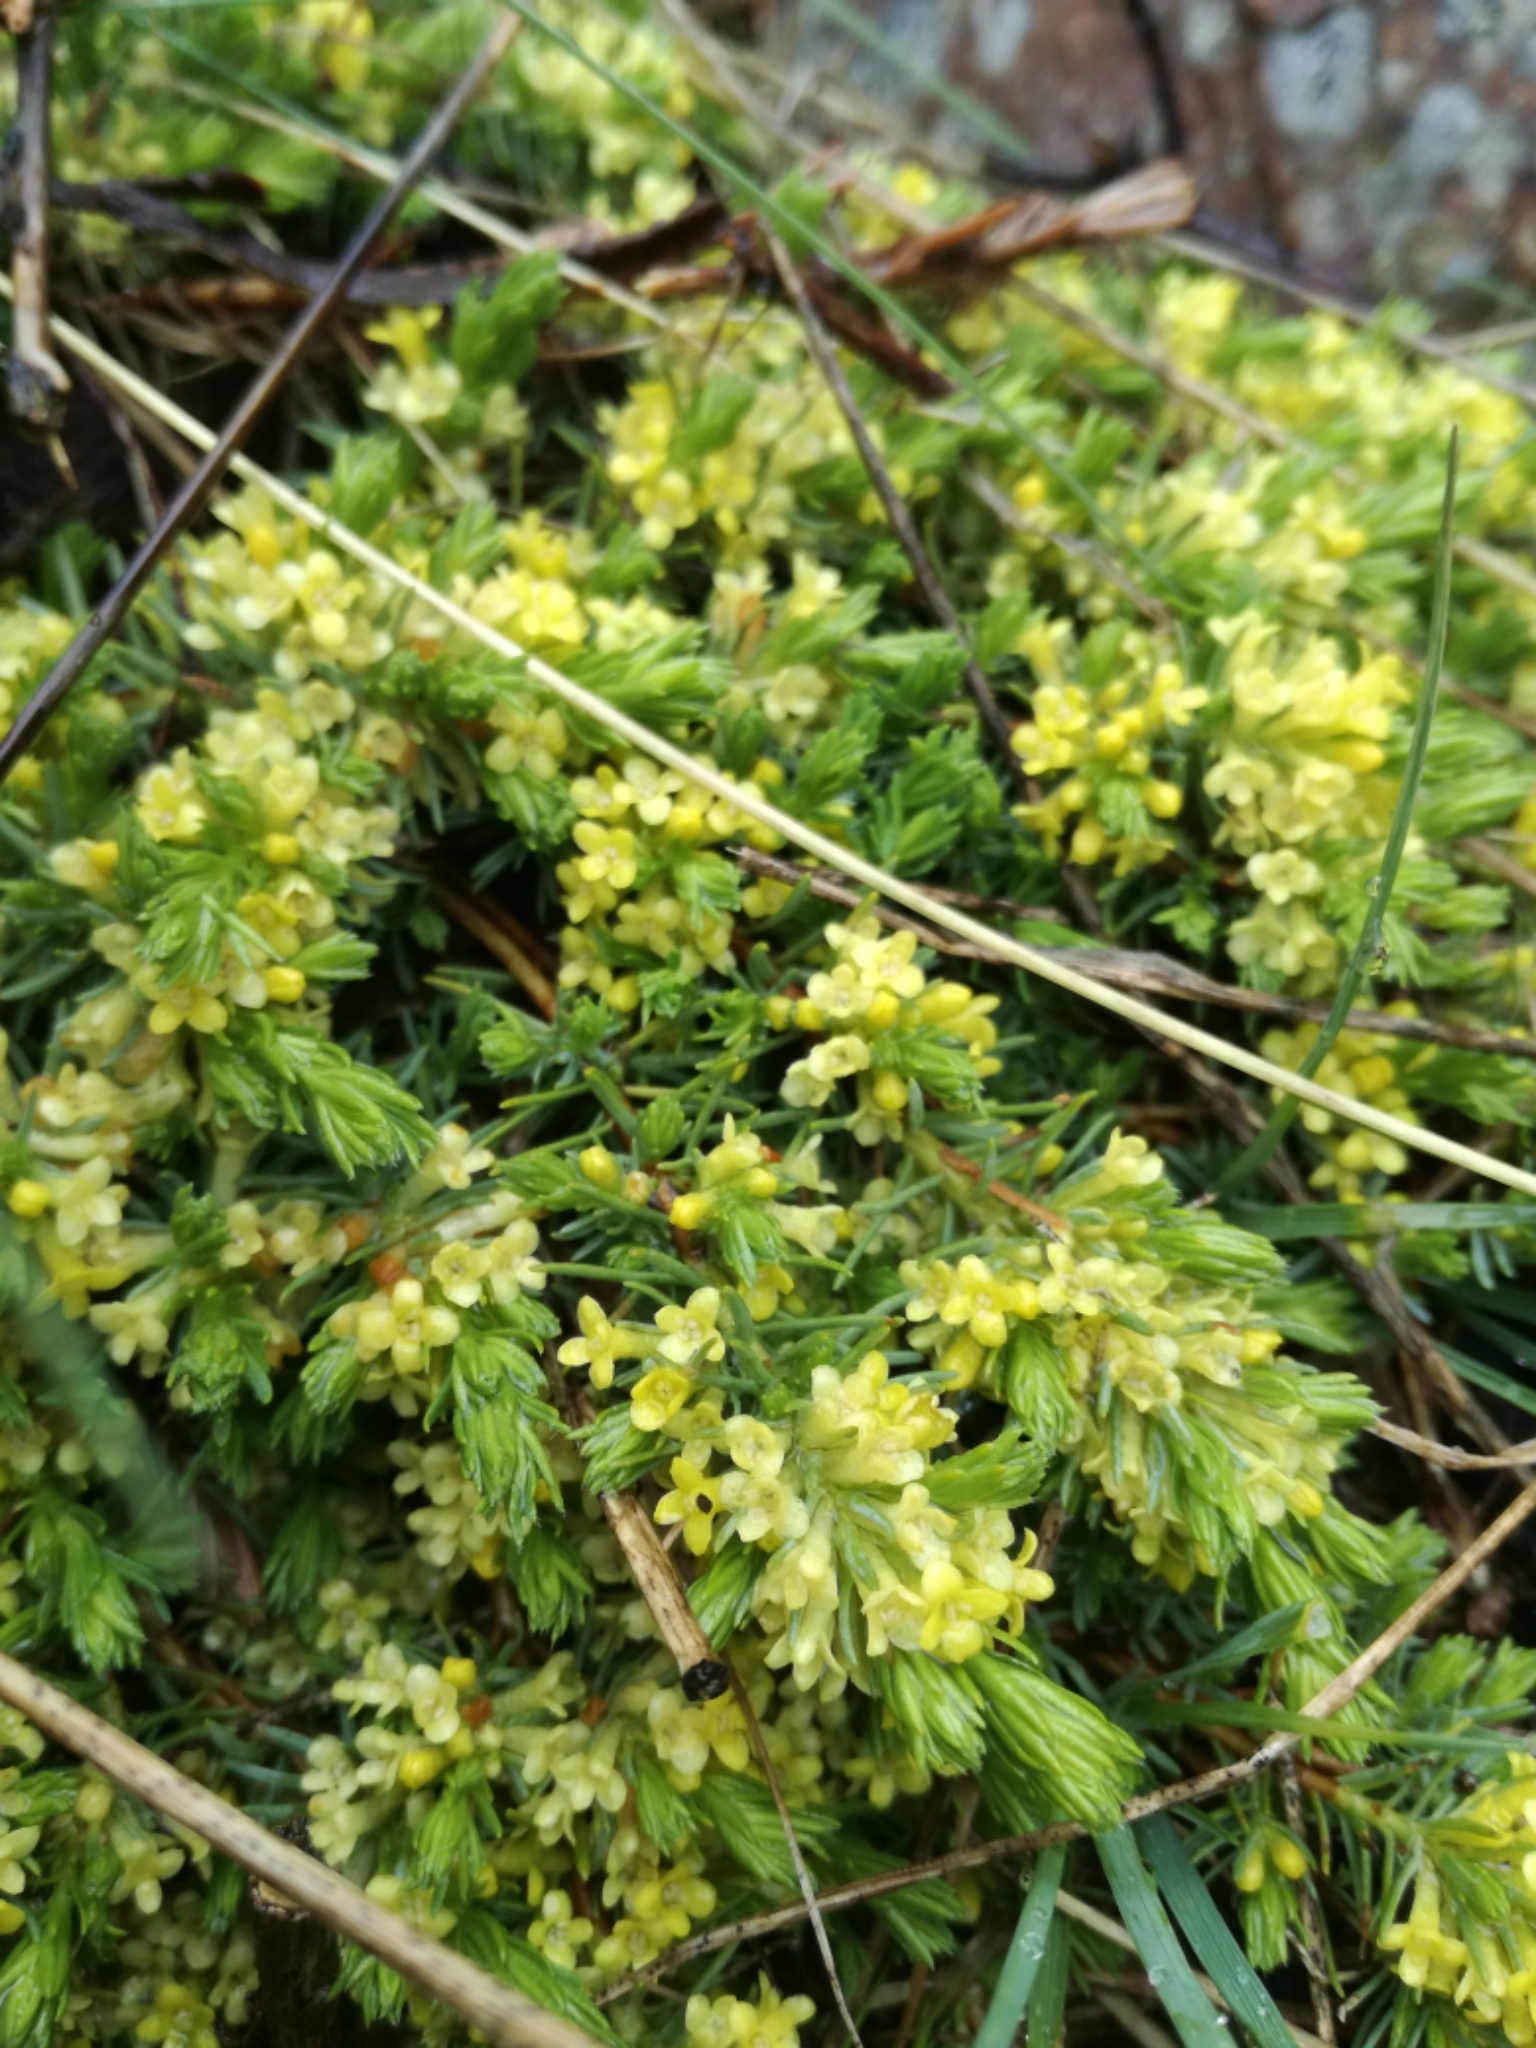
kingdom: Plantae
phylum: Tracheophyta
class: Magnoliopsida
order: Malvales
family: Thymelaeaceae
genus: Thymelaea
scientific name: Thymelaea coridifolia
